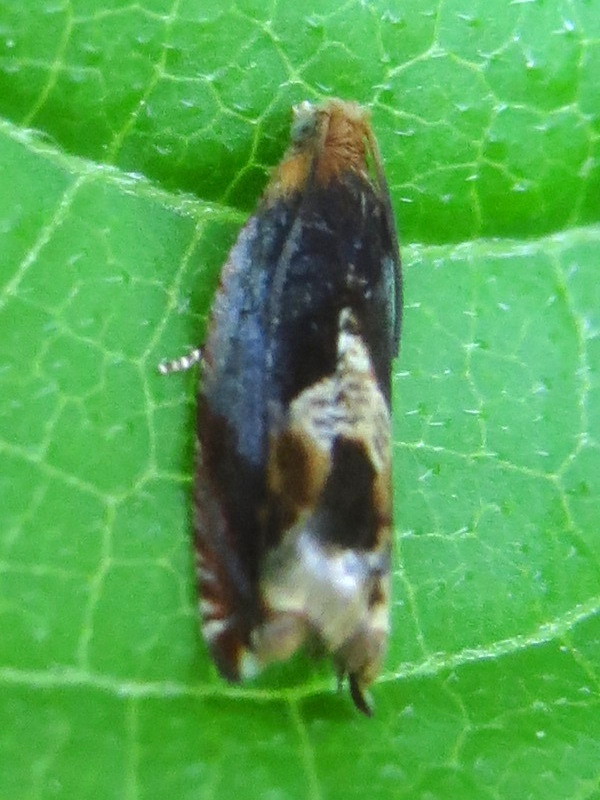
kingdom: Animalia
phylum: Arthropoda
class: Insecta
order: Lepidoptera
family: Tortricidae
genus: Ancylis
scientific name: Ancylis muricana
